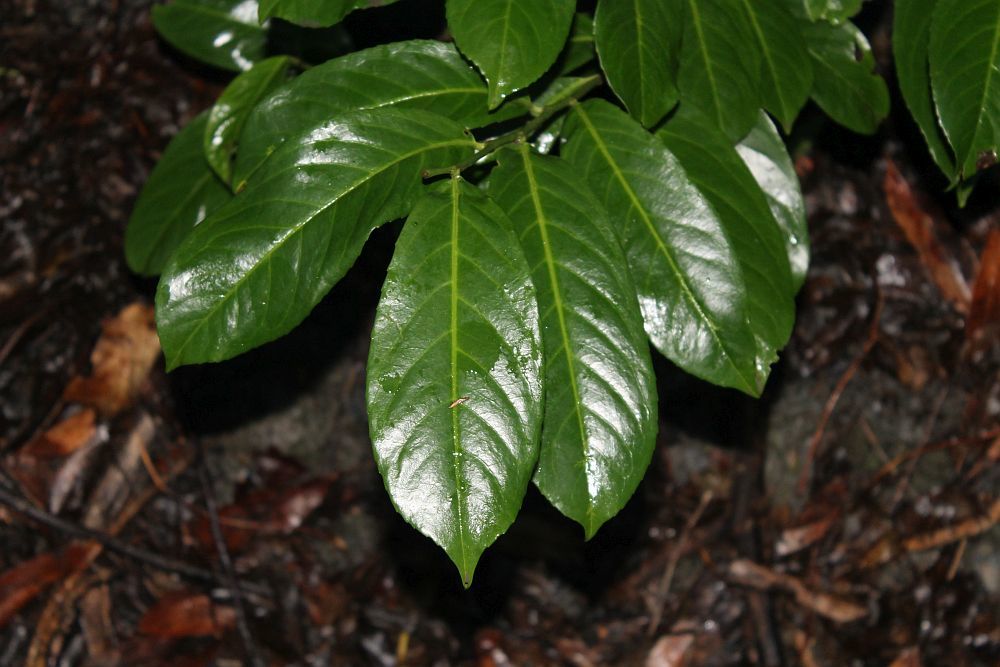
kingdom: Plantae
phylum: Tracheophyta
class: Magnoliopsida
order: Rosales
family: Rosaceae
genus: Prunus
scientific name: Prunus laurocerasus
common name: Cherry laurel
